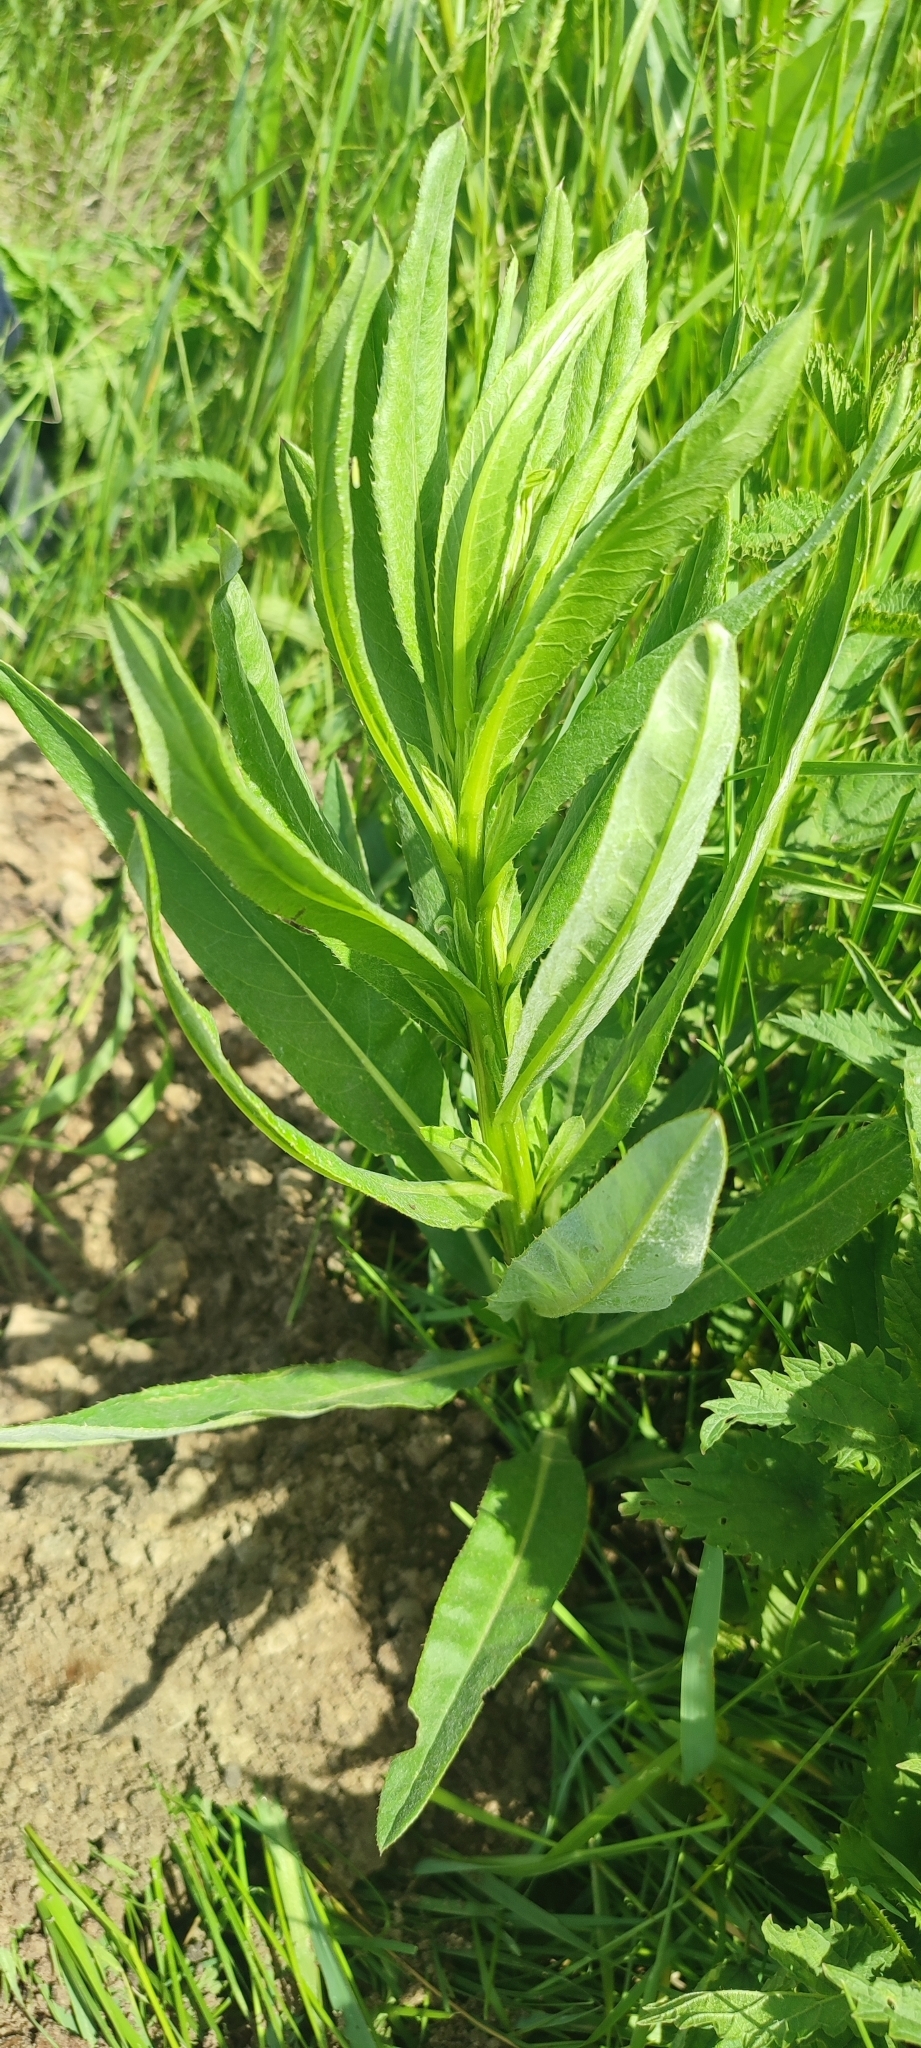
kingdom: Plantae
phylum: Tracheophyta
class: Magnoliopsida
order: Asterales
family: Asteraceae
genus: Cirsium
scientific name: Cirsium arvense
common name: Creeping thistle
